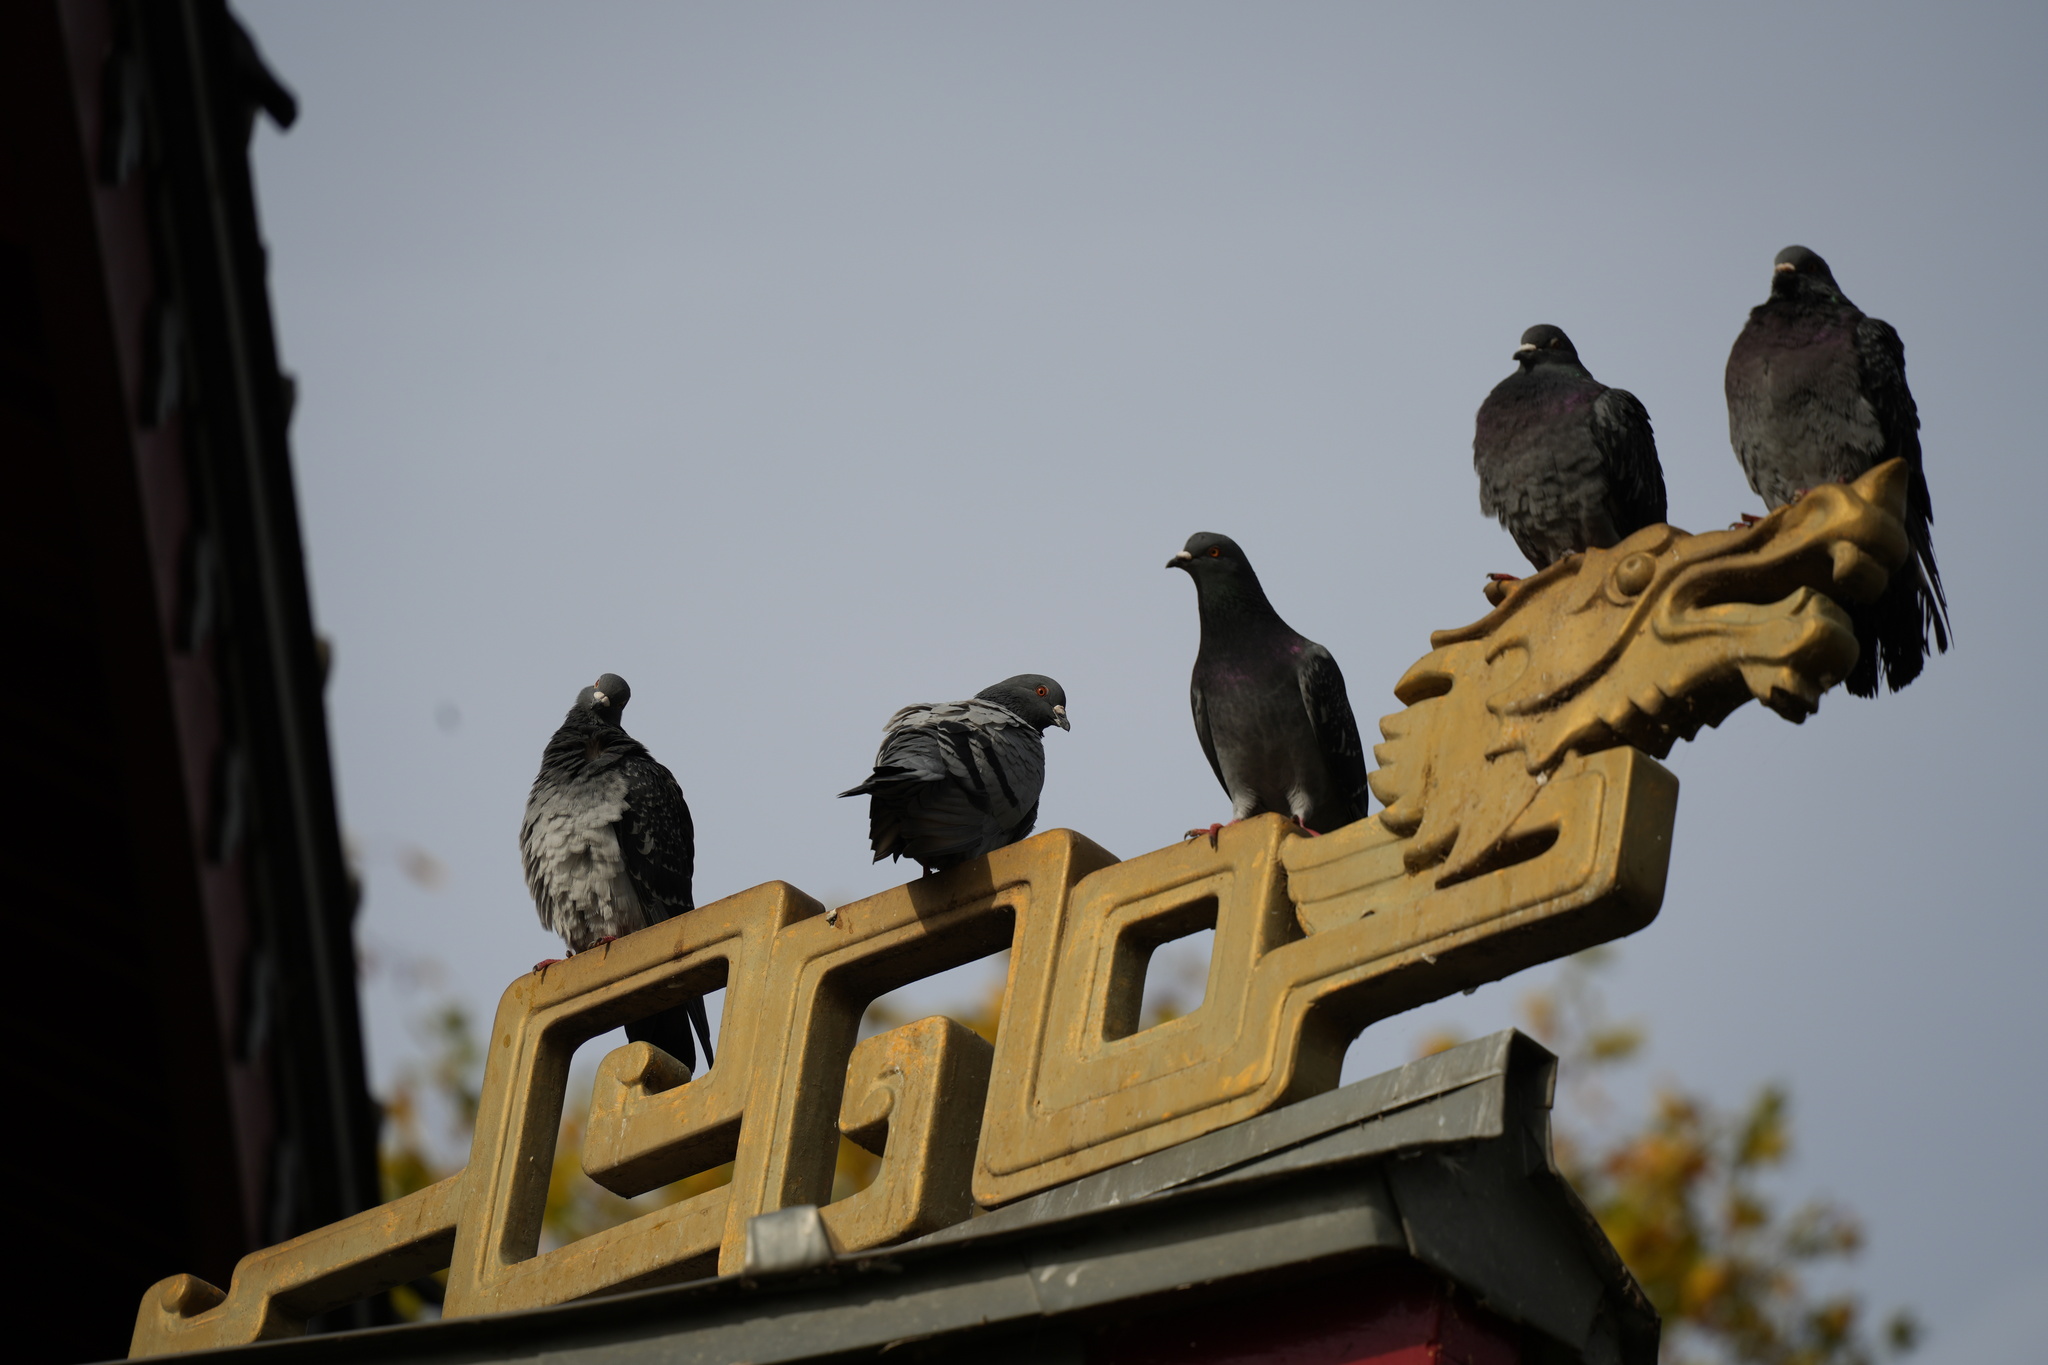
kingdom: Animalia
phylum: Chordata
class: Aves
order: Columbiformes
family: Columbidae
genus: Columba
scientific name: Columba livia
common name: Rock pigeon
